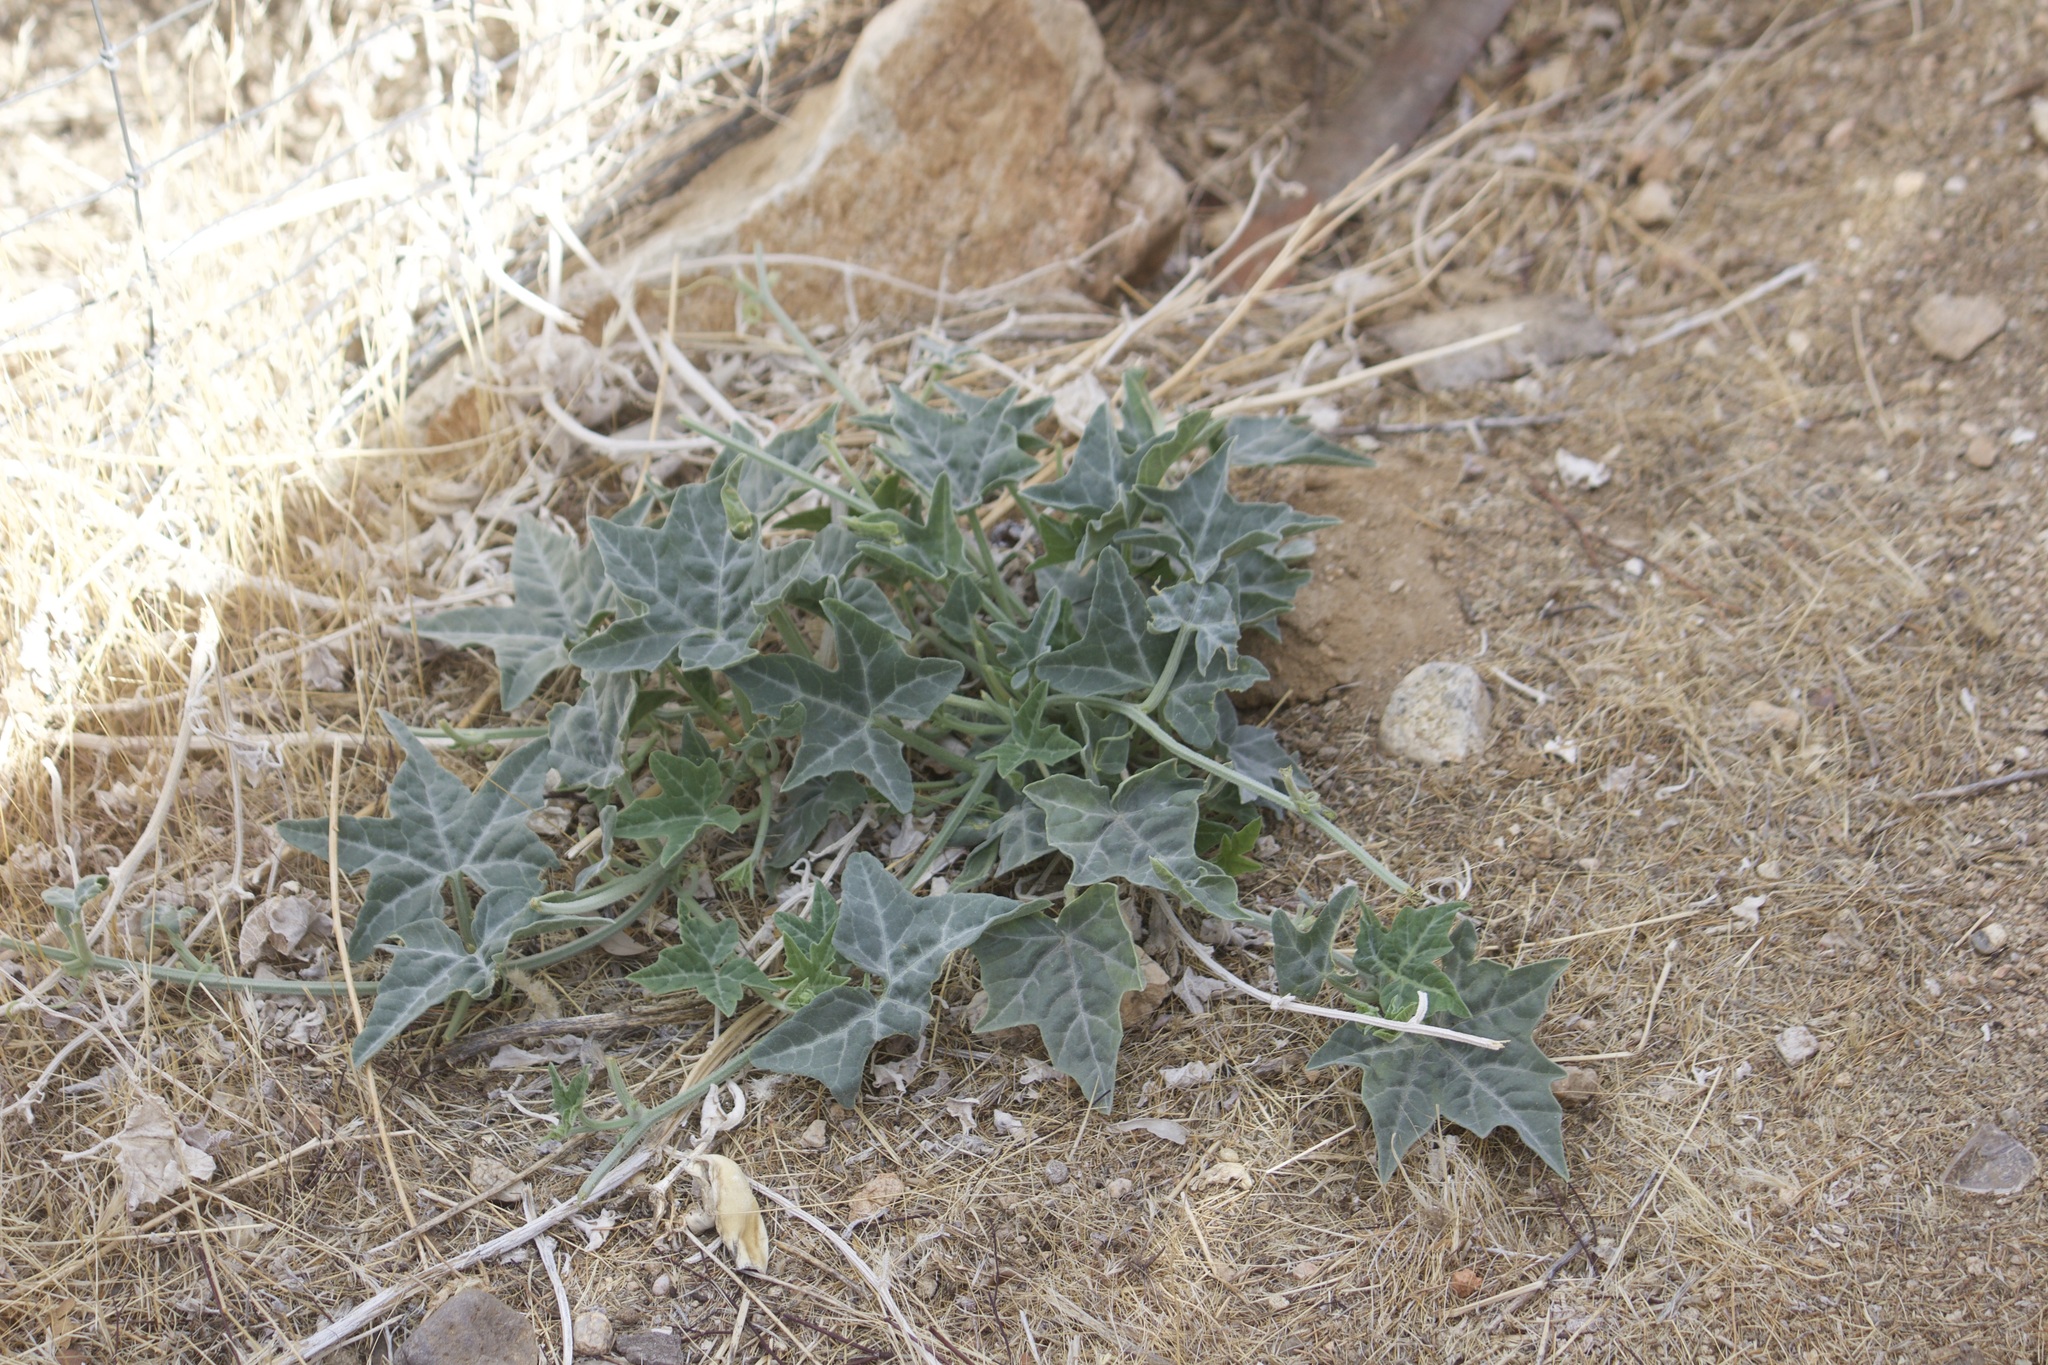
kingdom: Plantae
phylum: Tracheophyta
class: Magnoliopsida
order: Cucurbitales
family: Cucurbitaceae
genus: Cucurbita
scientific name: Cucurbita palmata
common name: Coyote-melon
